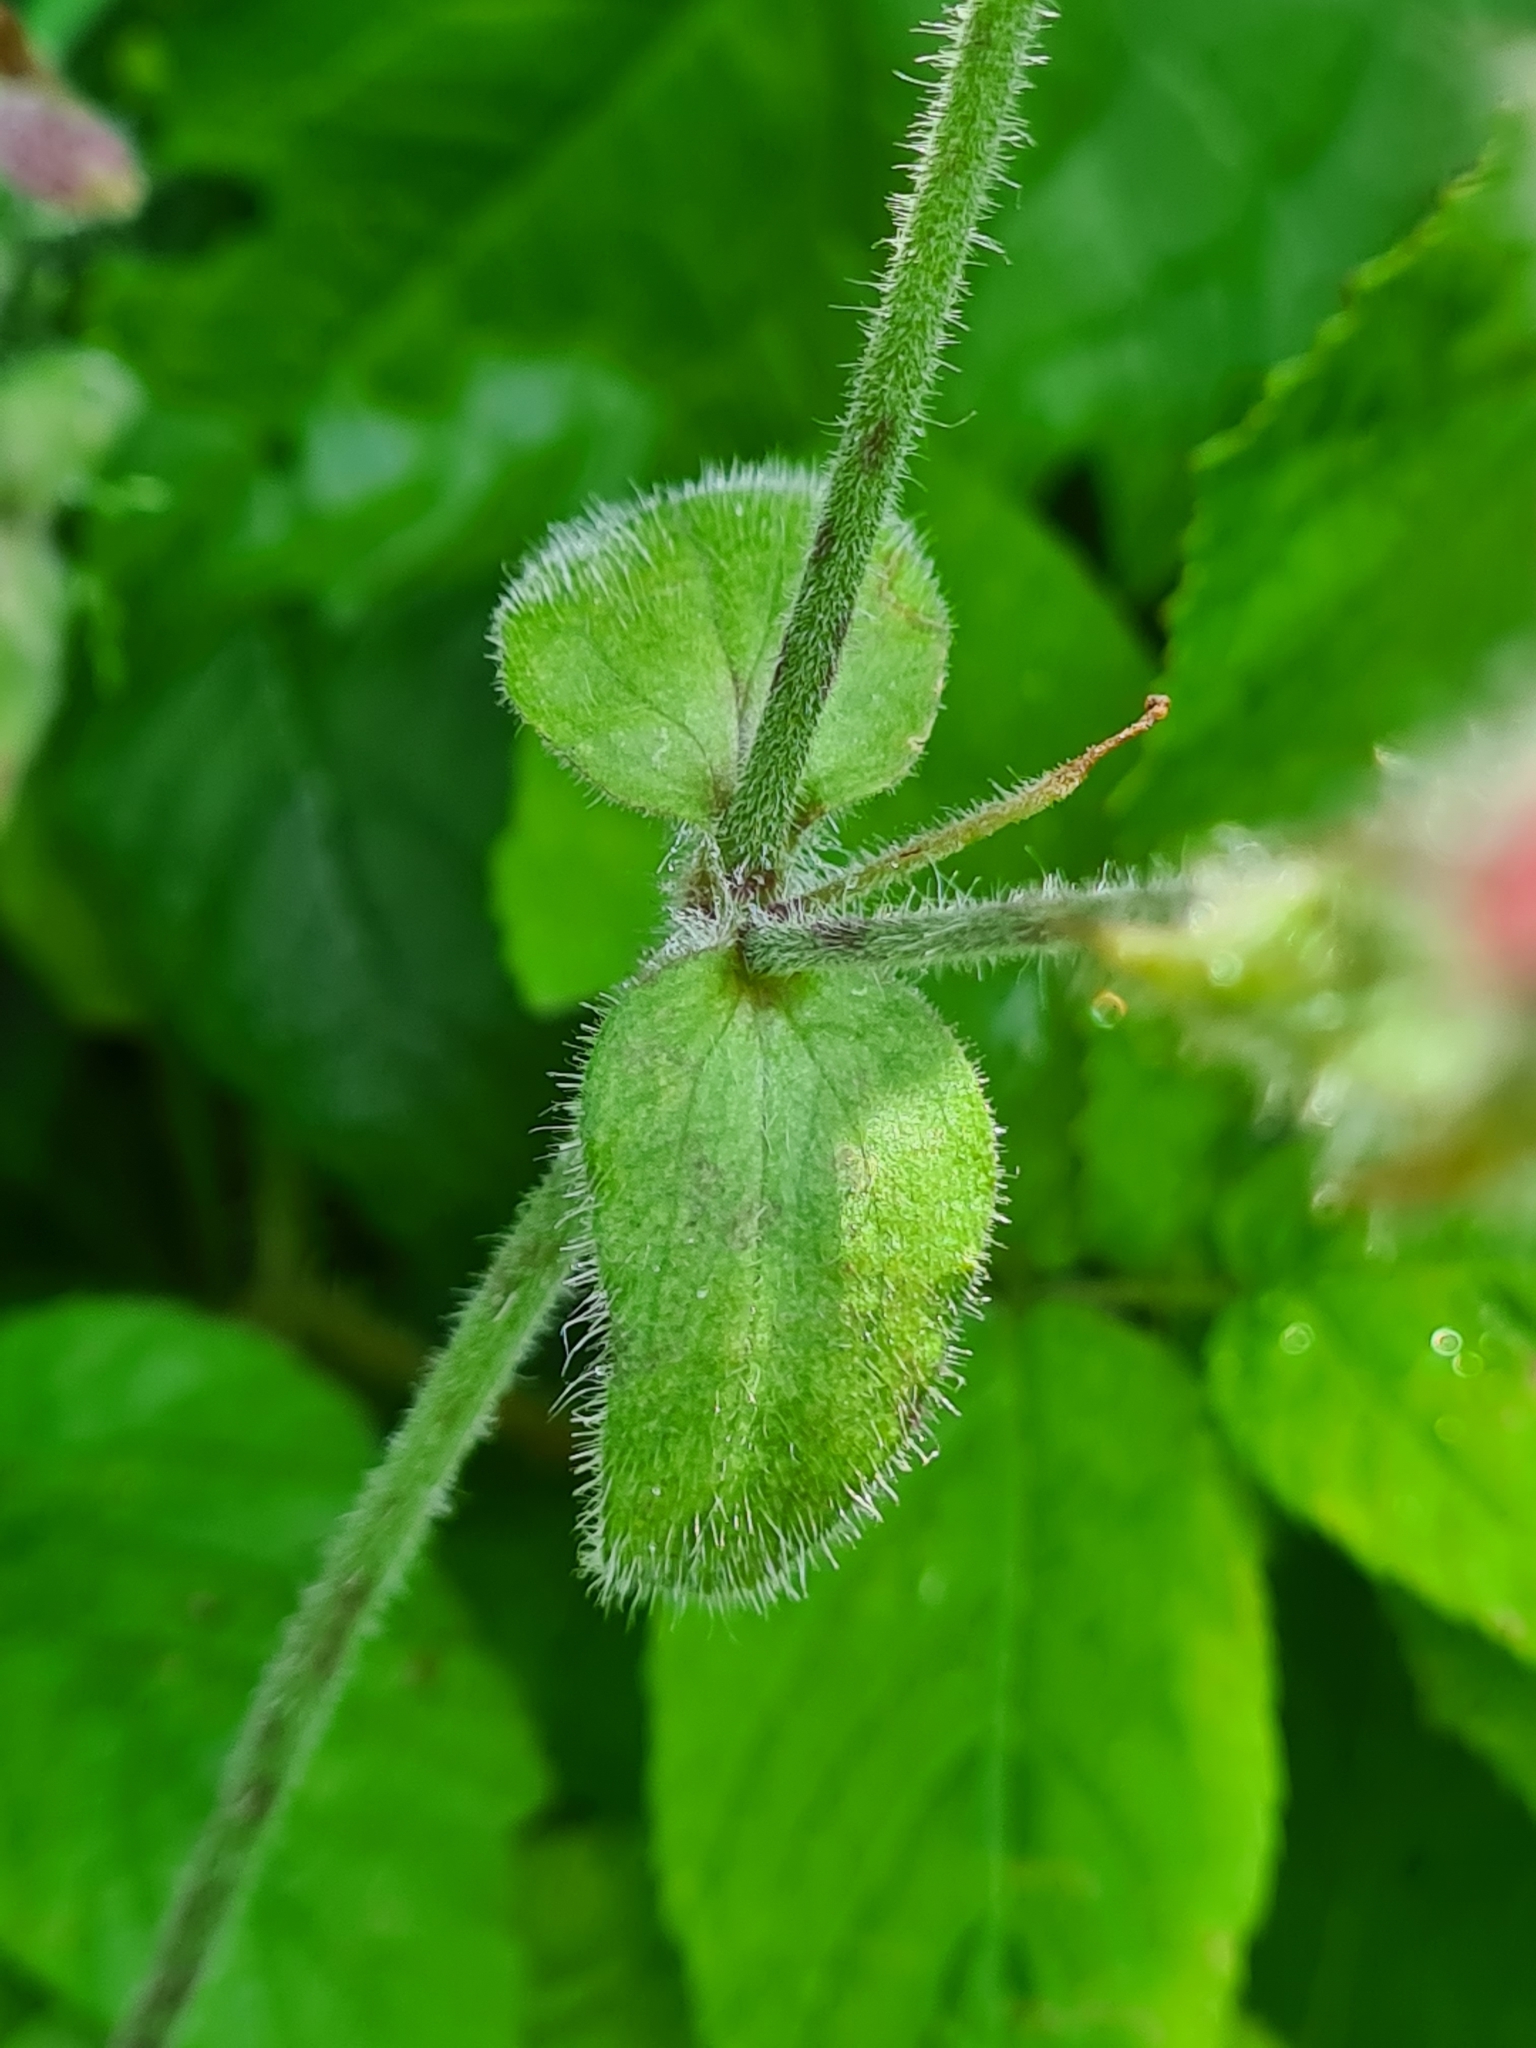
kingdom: Plantae
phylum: Tracheophyta
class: Magnoliopsida
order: Caryophyllales
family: Caryophyllaceae
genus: Silene
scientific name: Silene dioica
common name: Red campion
